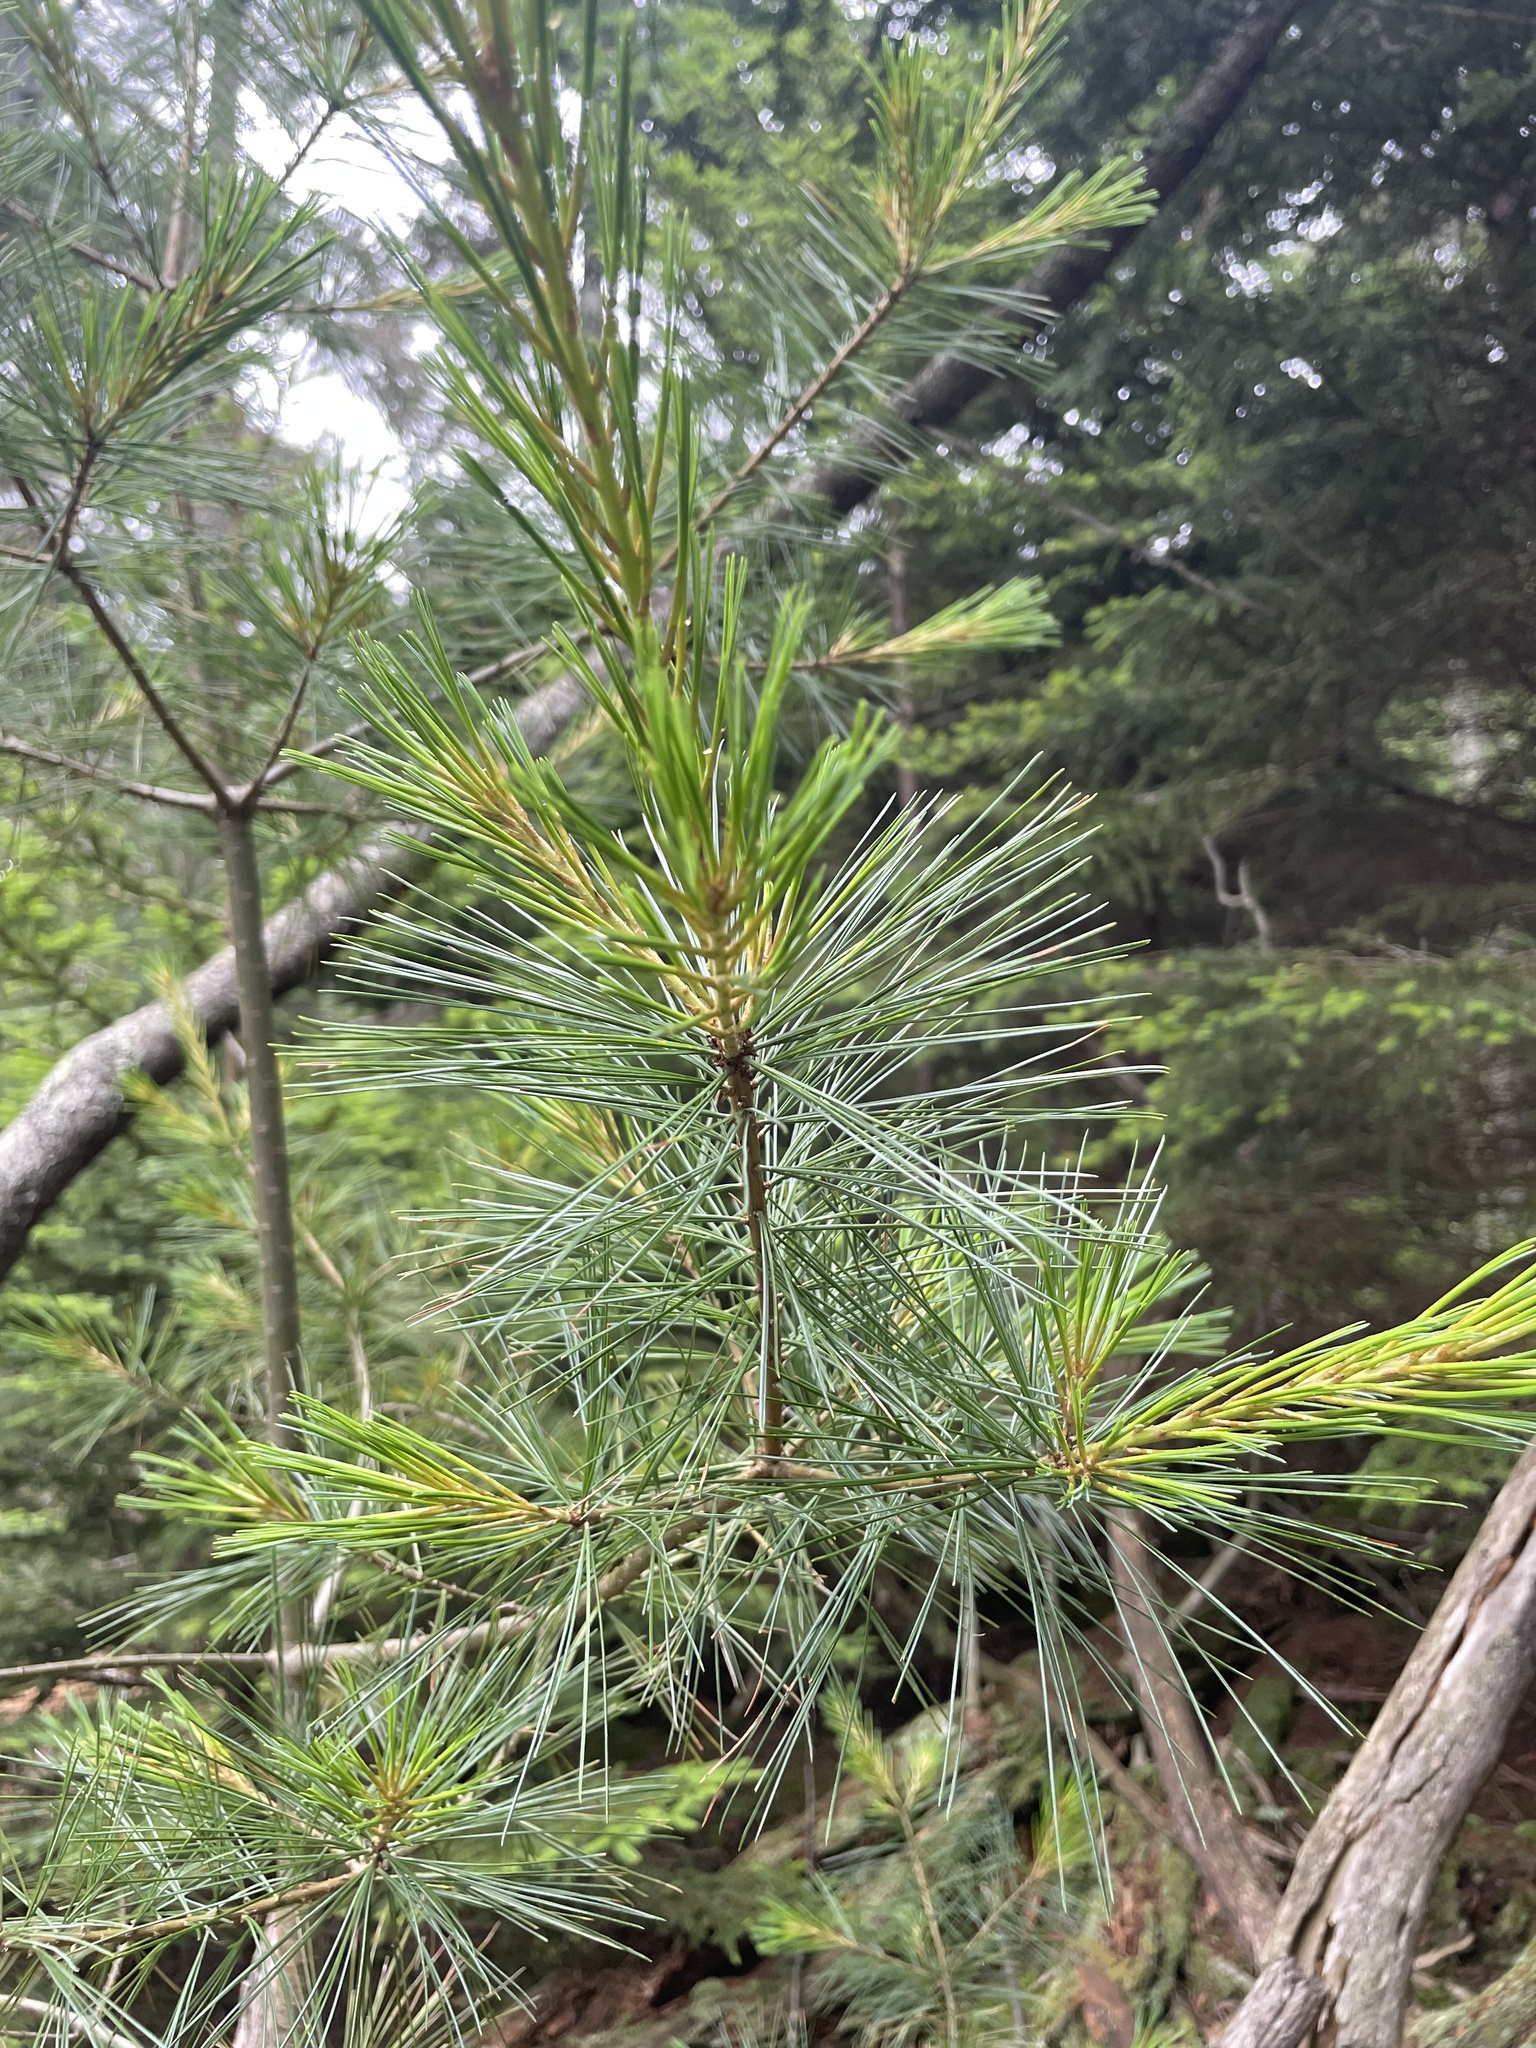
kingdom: Plantae
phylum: Tracheophyta
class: Pinopsida
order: Pinales
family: Pinaceae
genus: Pinus
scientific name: Pinus strobus
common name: Weymouth pine
